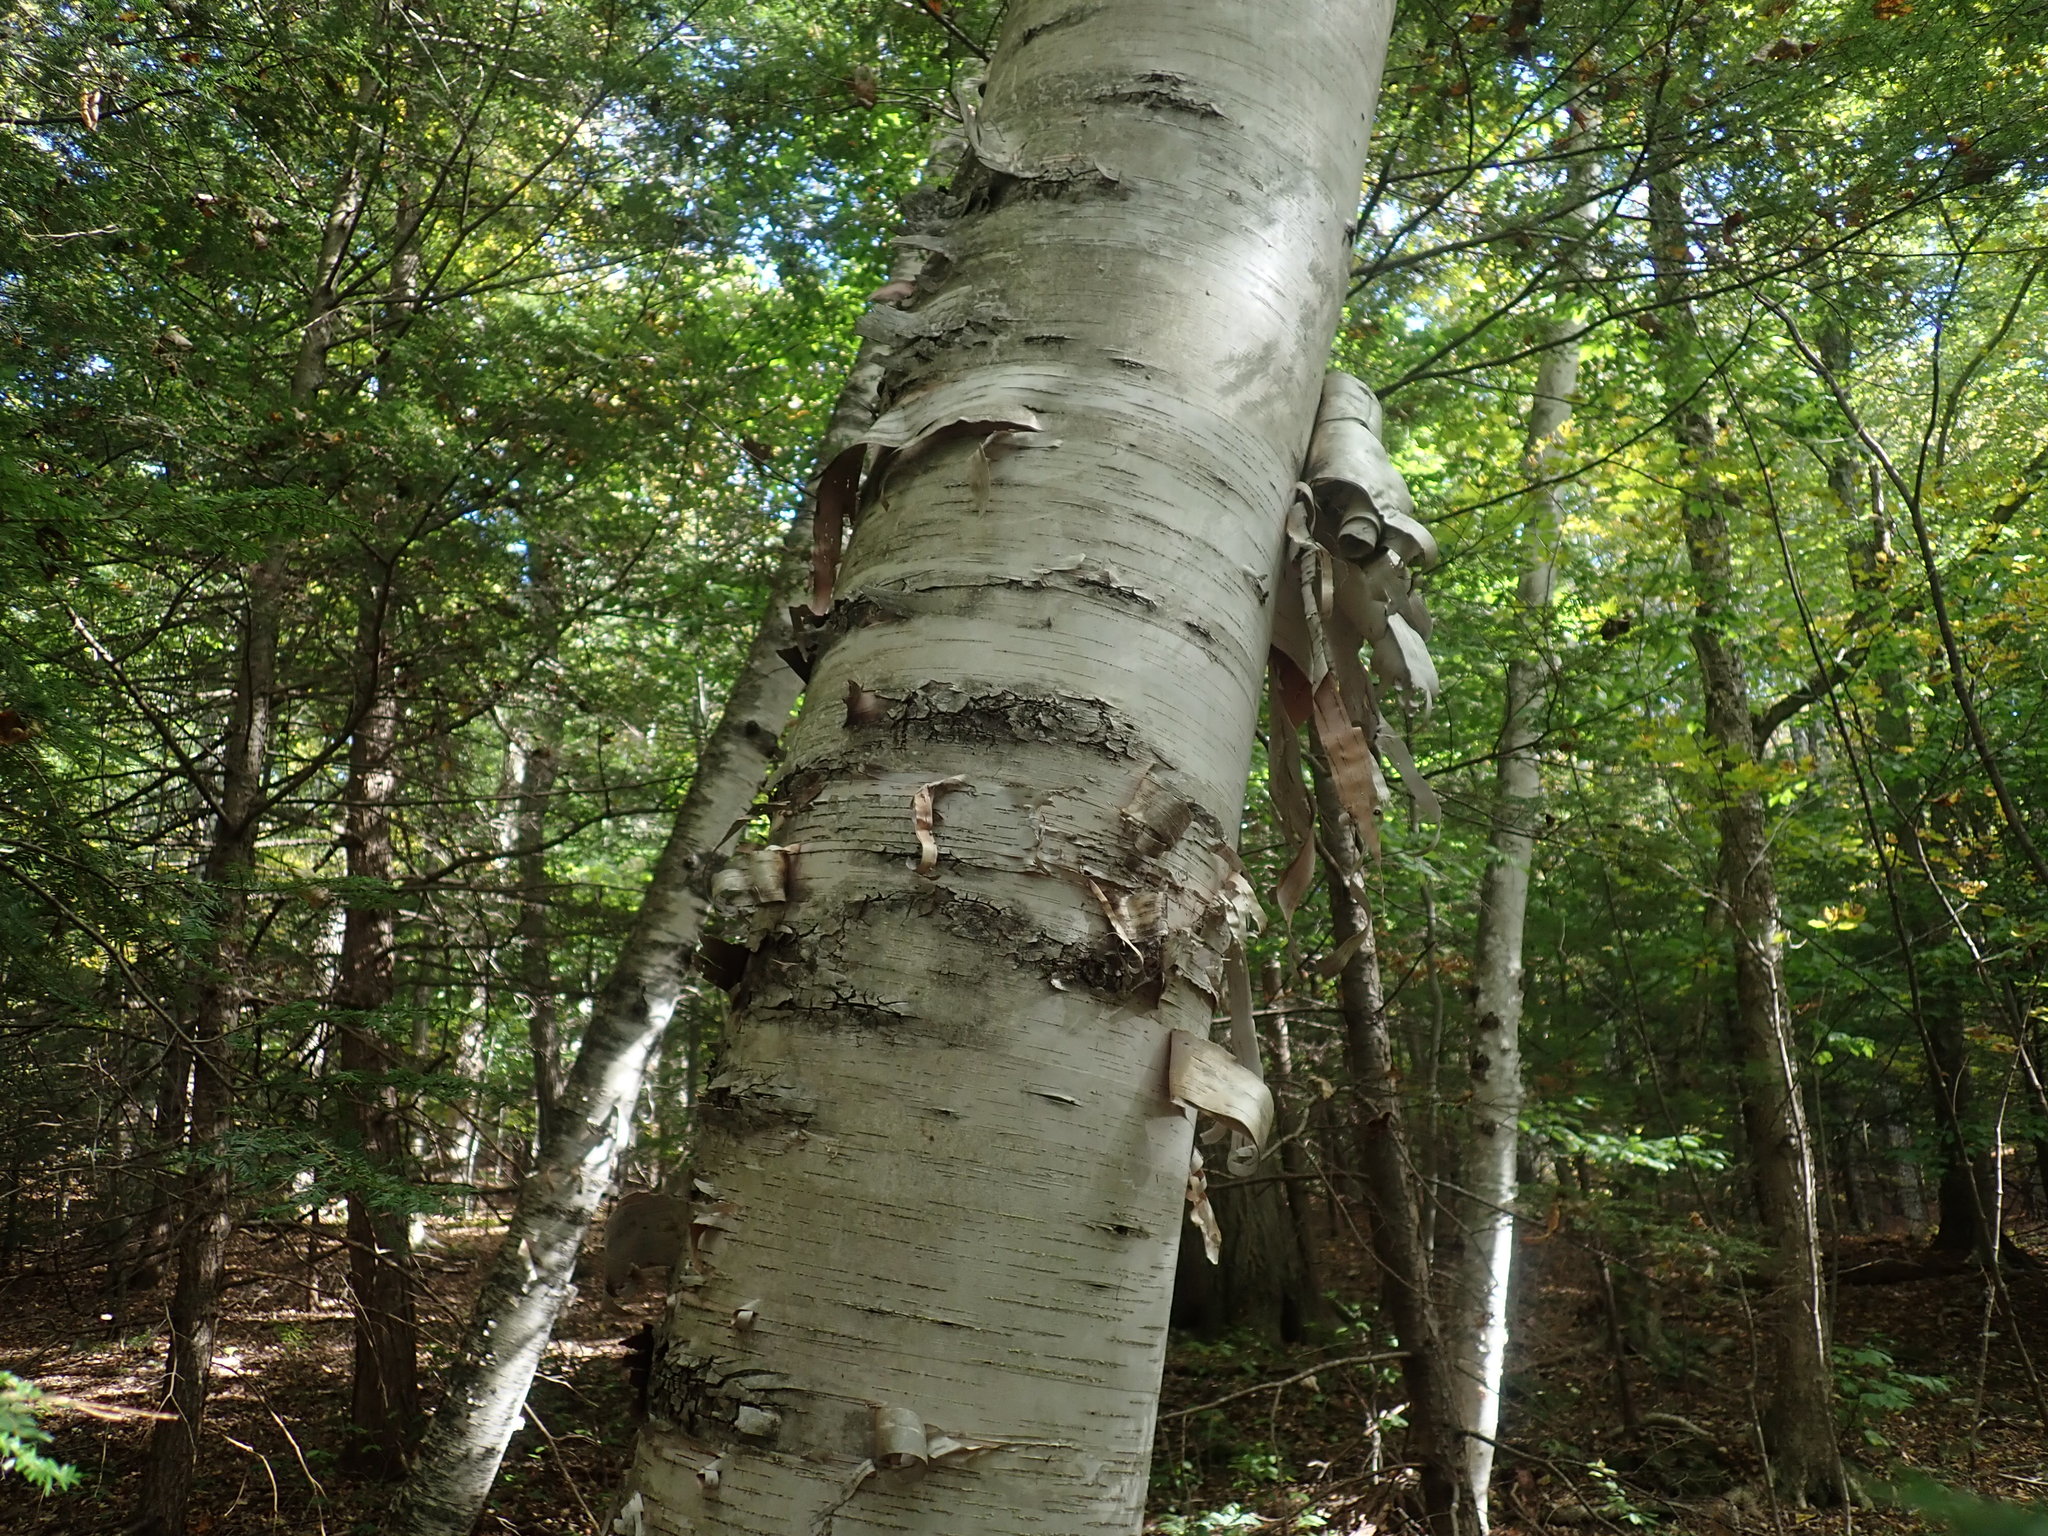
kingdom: Plantae
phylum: Tracheophyta
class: Magnoliopsida
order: Fagales
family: Betulaceae
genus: Betula
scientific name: Betula papyrifera
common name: Paper birch
